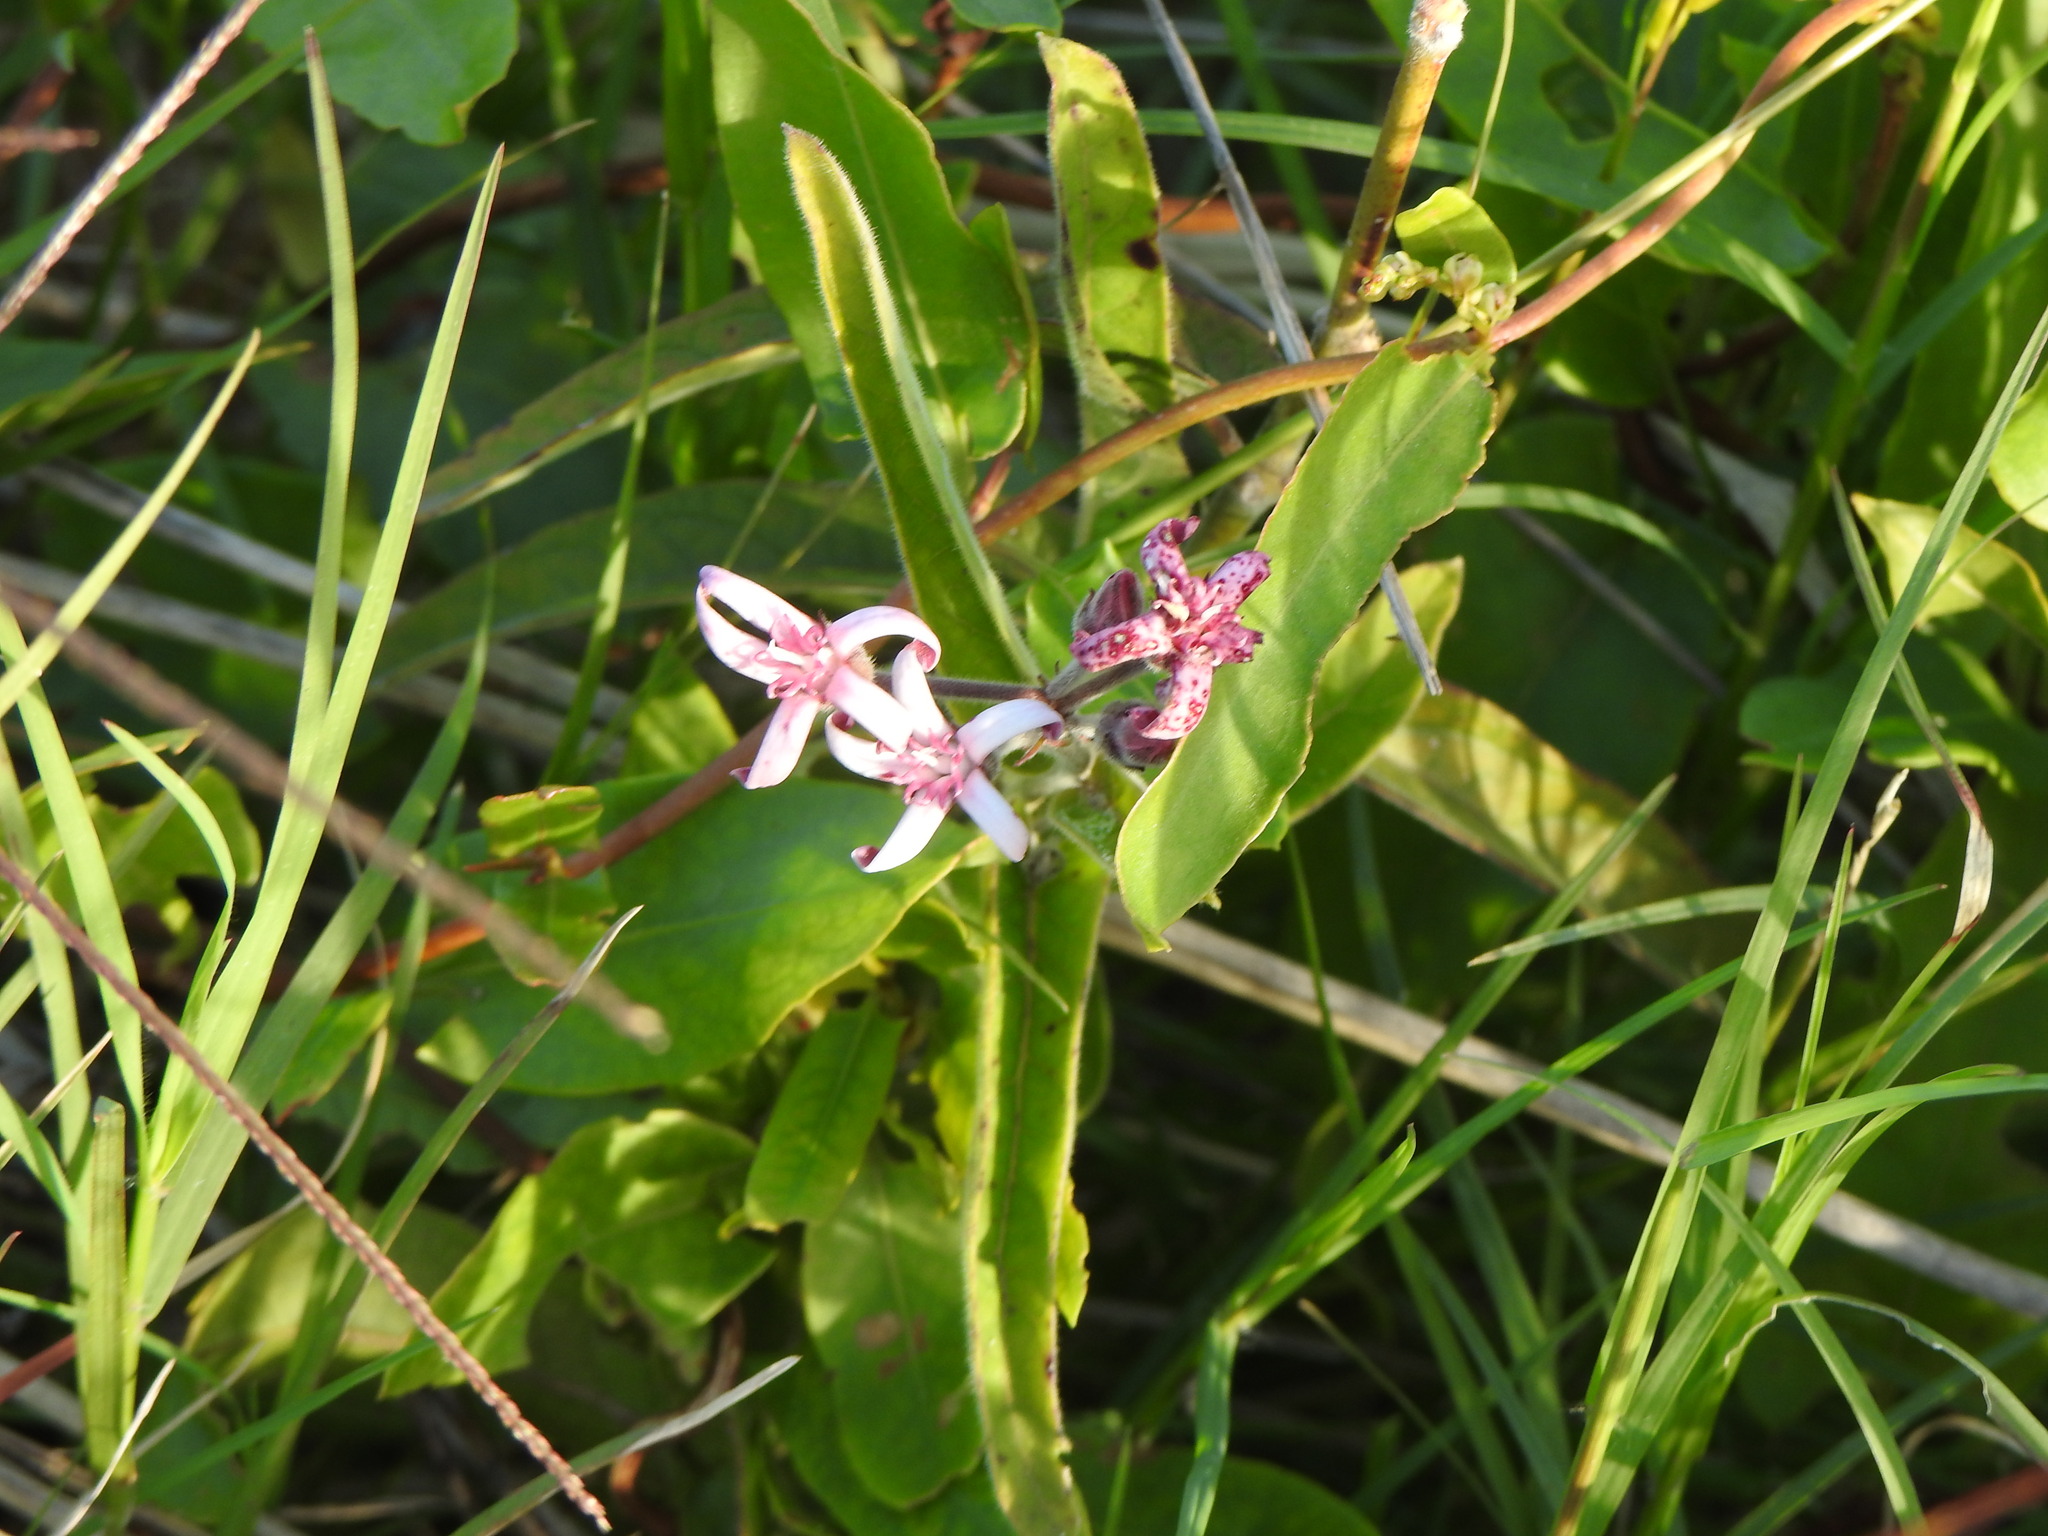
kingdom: Plantae
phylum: Tracheophyta
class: Magnoliopsida
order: Gentianales
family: Apocynaceae
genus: Oxypetalum
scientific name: Oxypetalum solanoides
